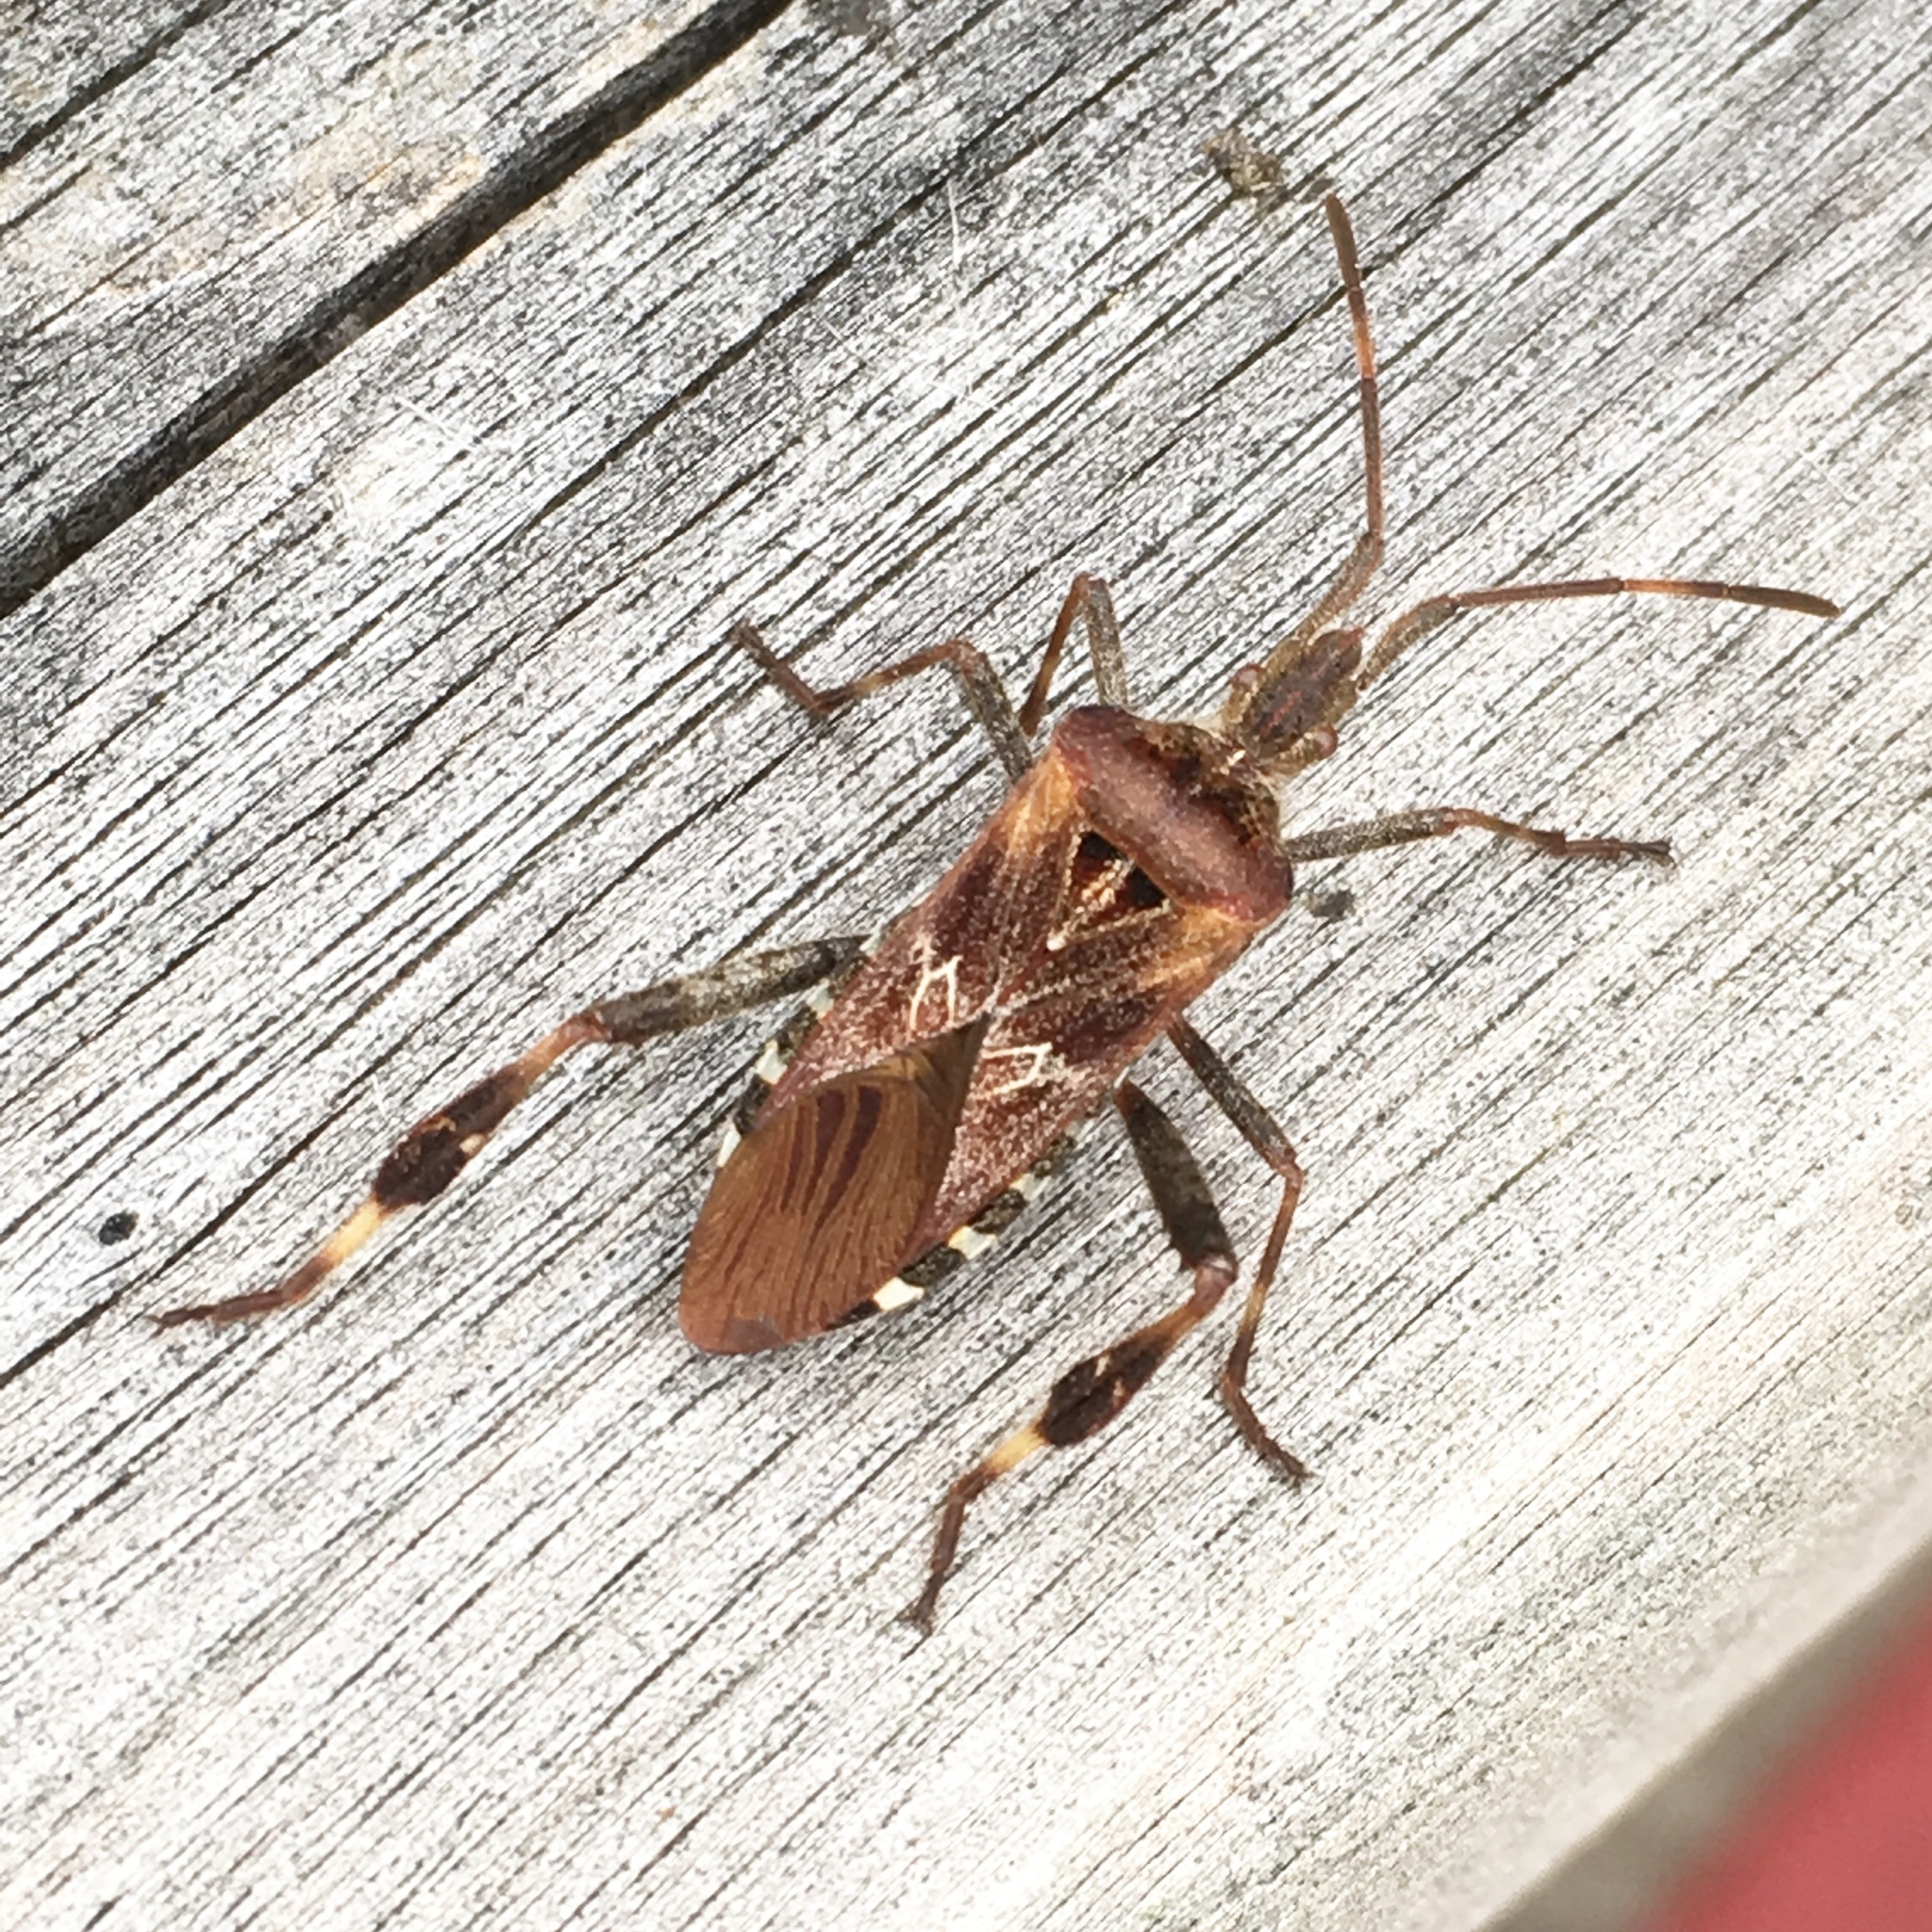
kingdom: Animalia
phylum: Arthropoda
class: Insecta
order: Hemiptera
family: Coreidae
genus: Leptoglossus
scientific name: Leptoglossus occidentalis
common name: Western conifer-seed bug
